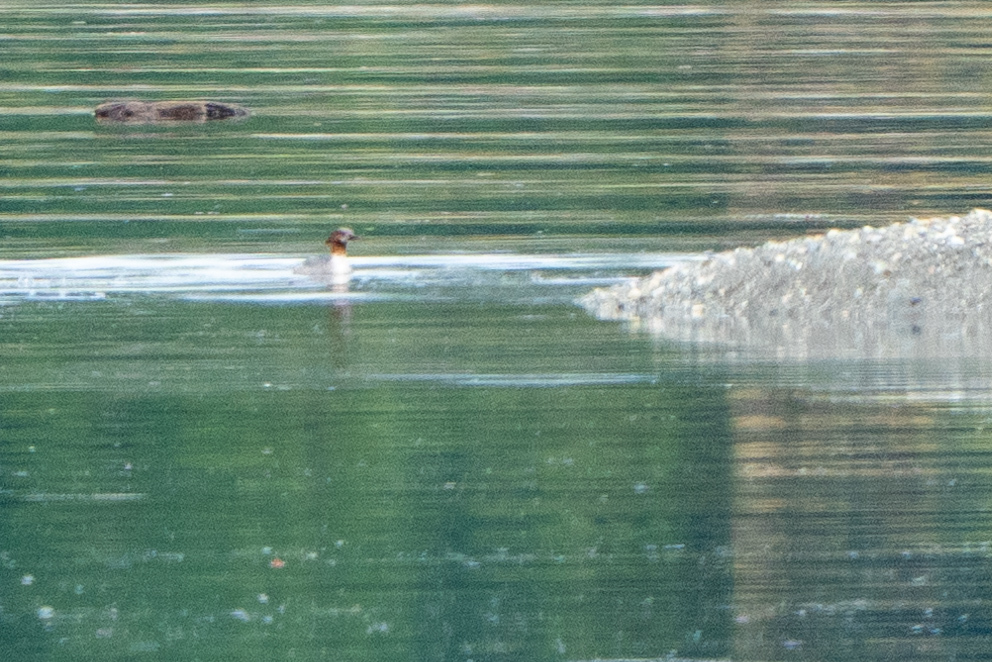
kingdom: Animalia
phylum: Chordata
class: Aves
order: Anseriformes
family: Anatidae
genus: Mergus
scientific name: Mergus merganser
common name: Common merganser
